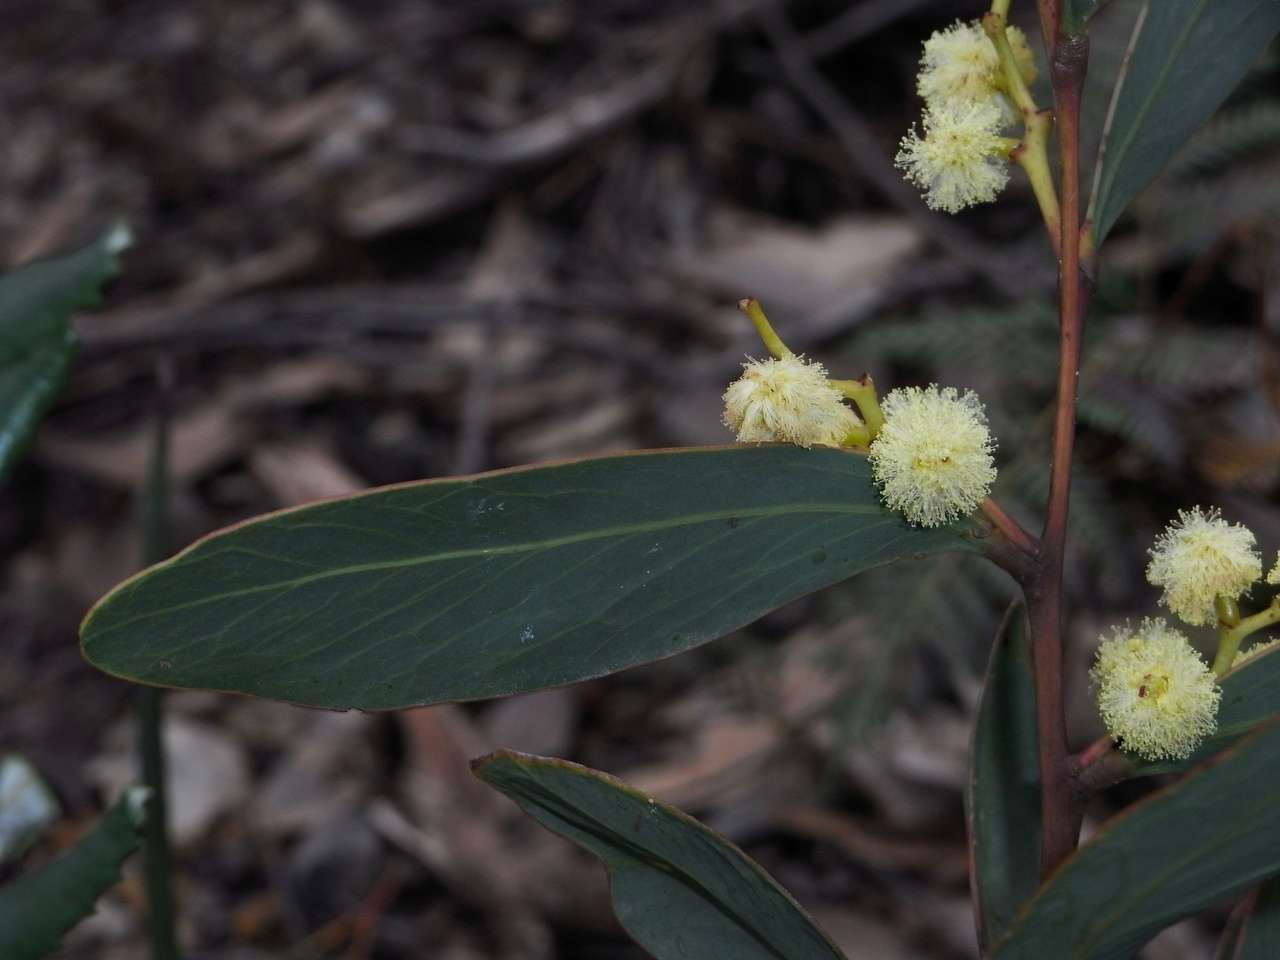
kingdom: Plantae
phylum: Tracheophyta
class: Magnoliopsida
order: Fabales
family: Fabaceae
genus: Acacia
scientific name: Acacia obliquinervia
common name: Mountain hickory wattle
